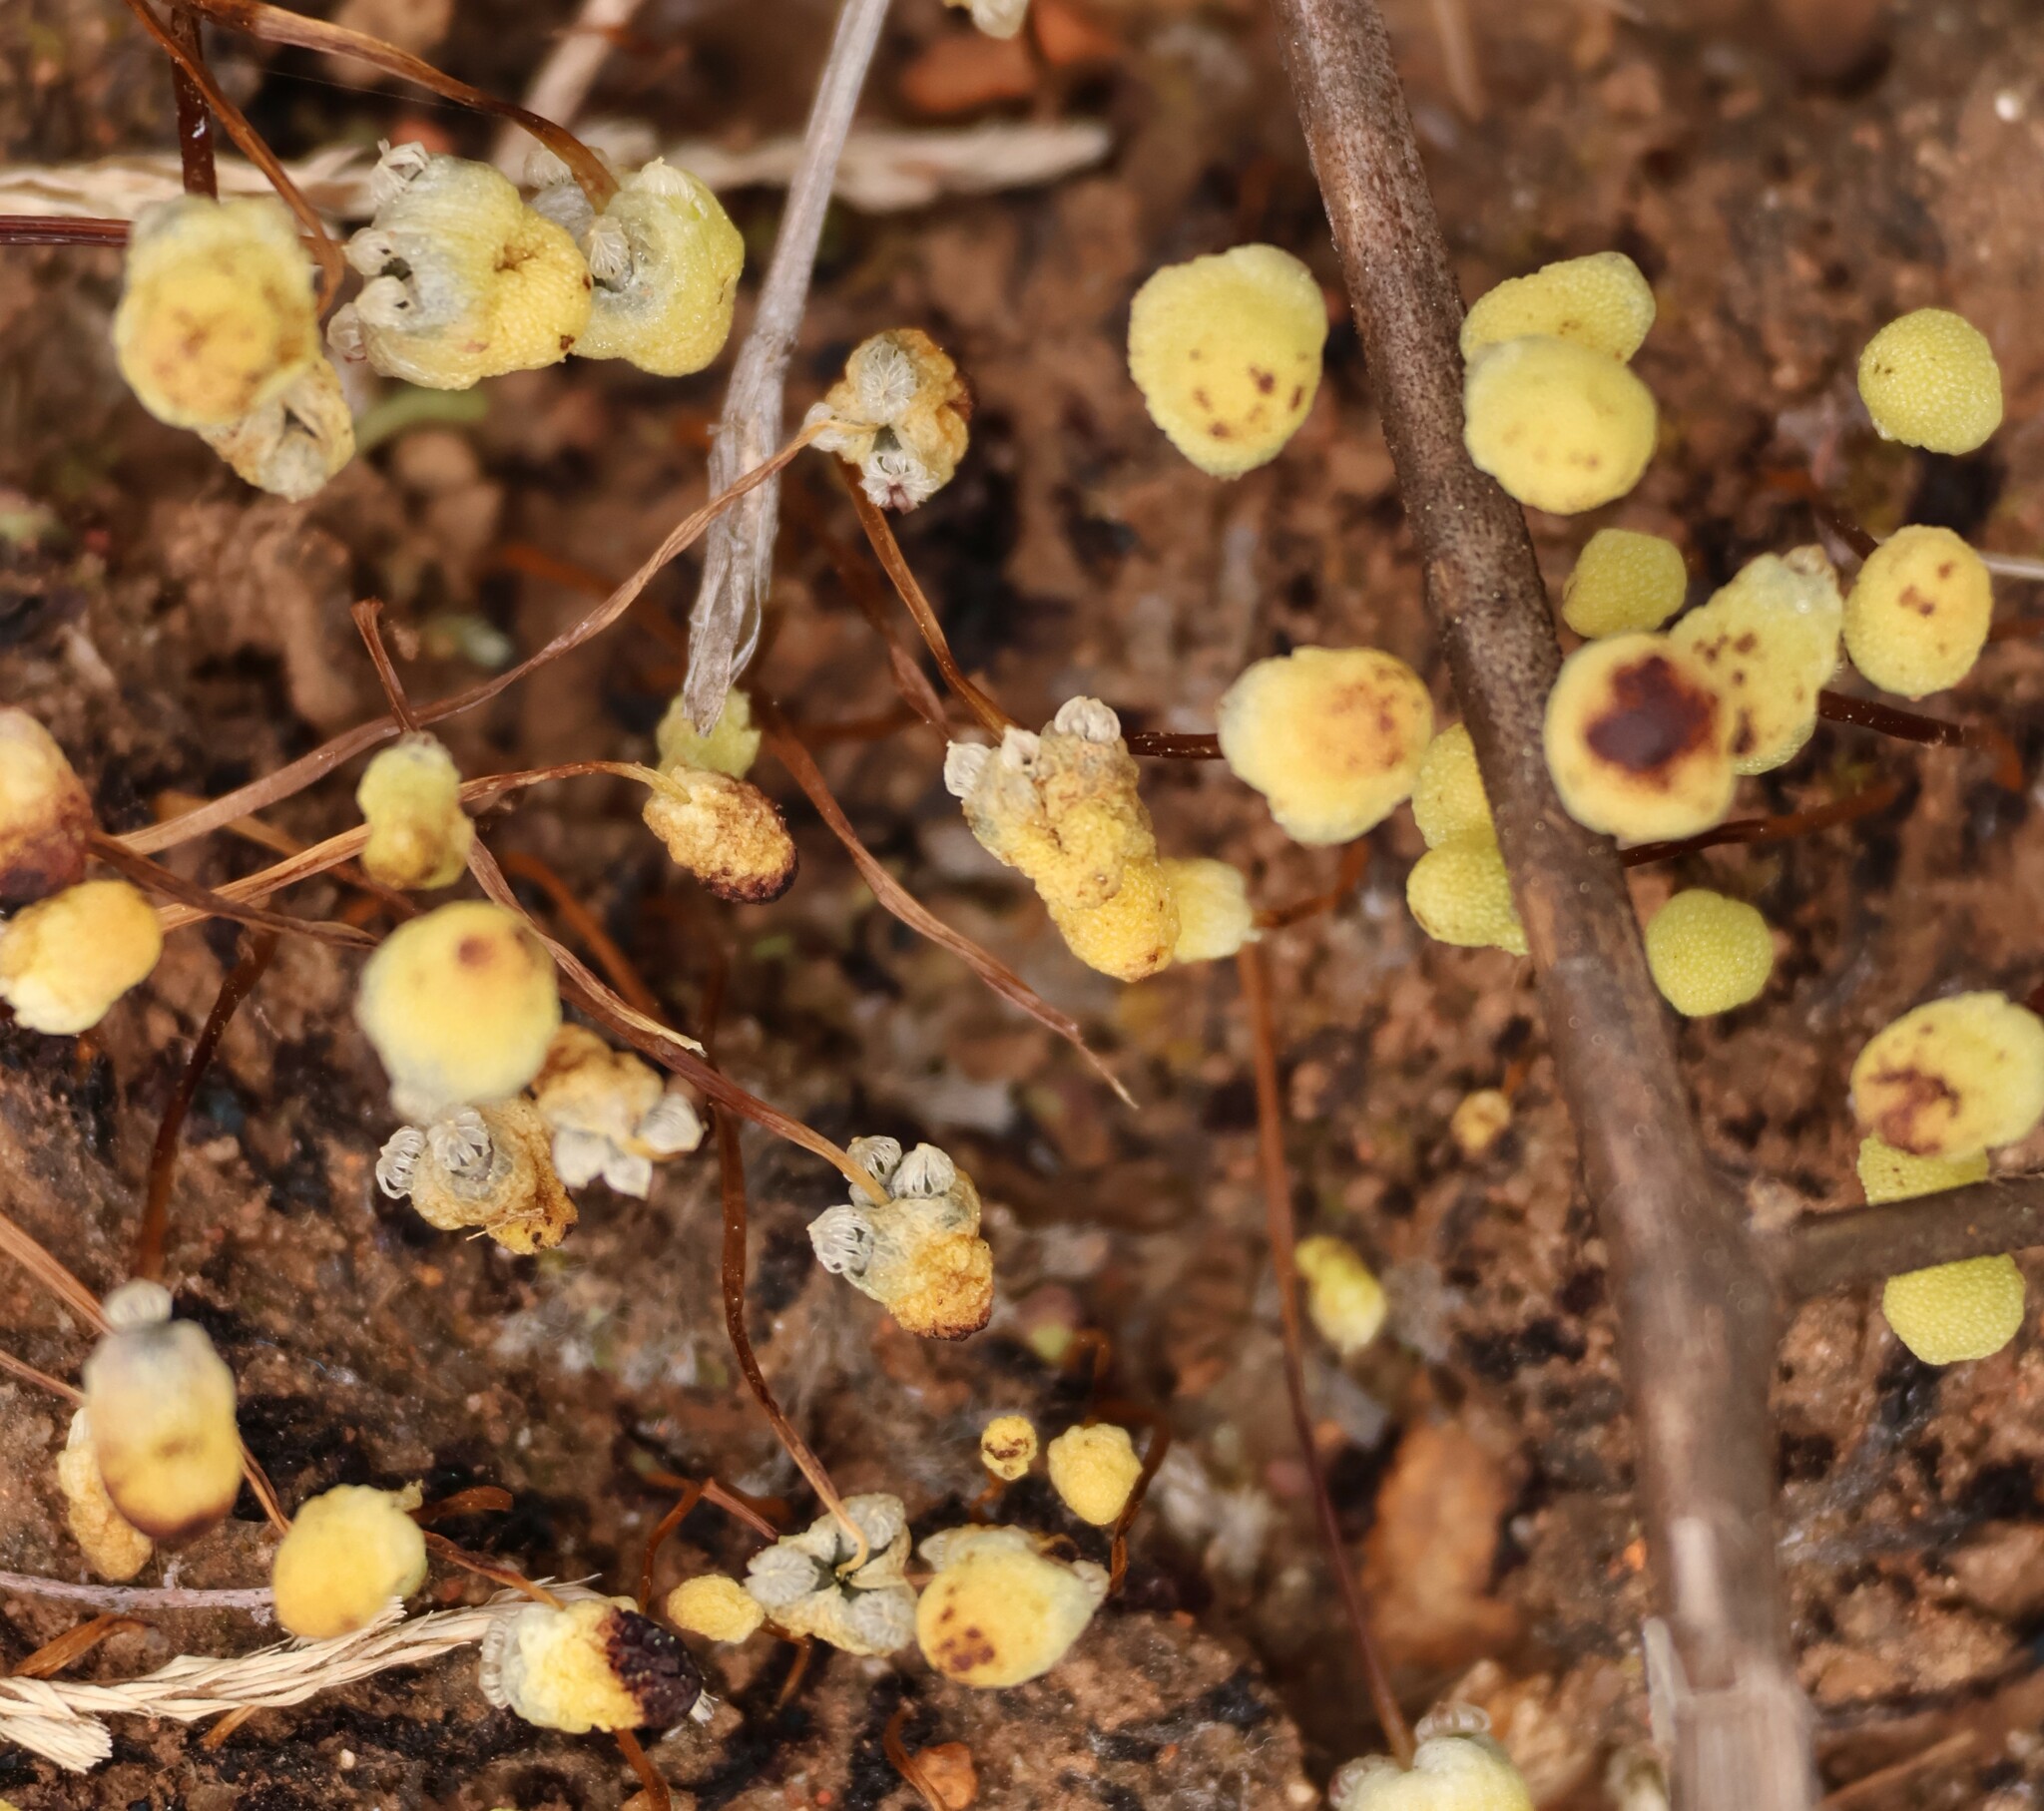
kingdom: Plantae
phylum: Marchantiophyta
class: Marchantiopsida
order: Marchantiales
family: Aytoniaceae
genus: Asterella
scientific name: Asterella palmeri
